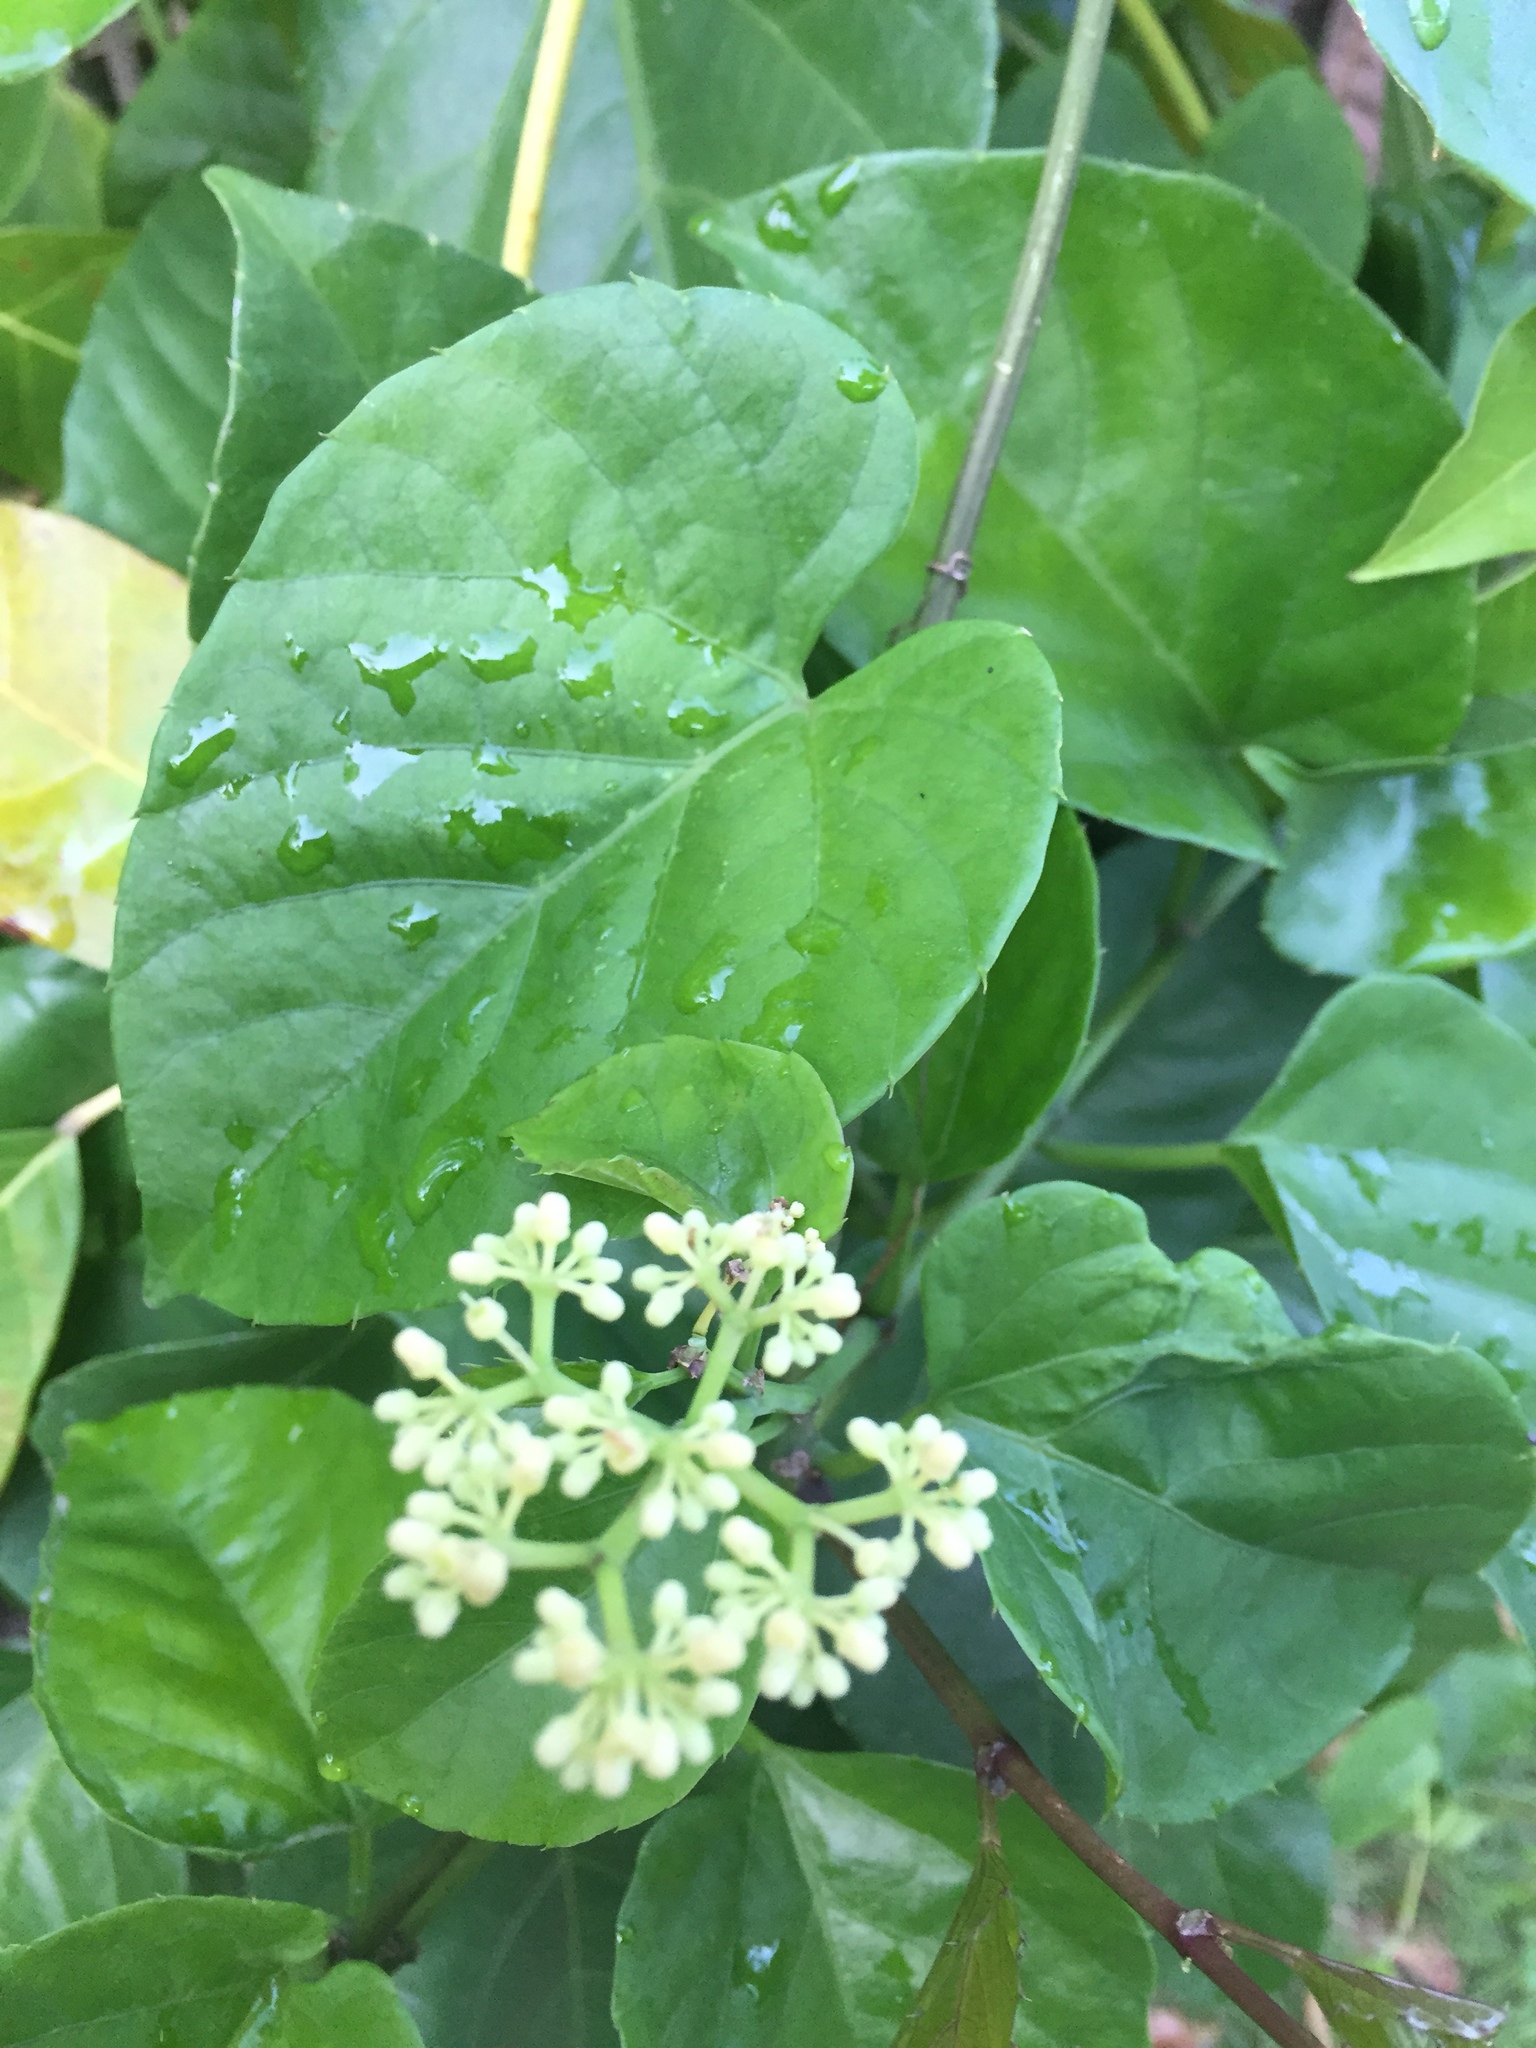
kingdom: Plantae
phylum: Tracheophyta
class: Magnoliopsida
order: Vitales
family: Vitaceae
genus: Cissus
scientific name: Cissus verticillata
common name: Princess vine
